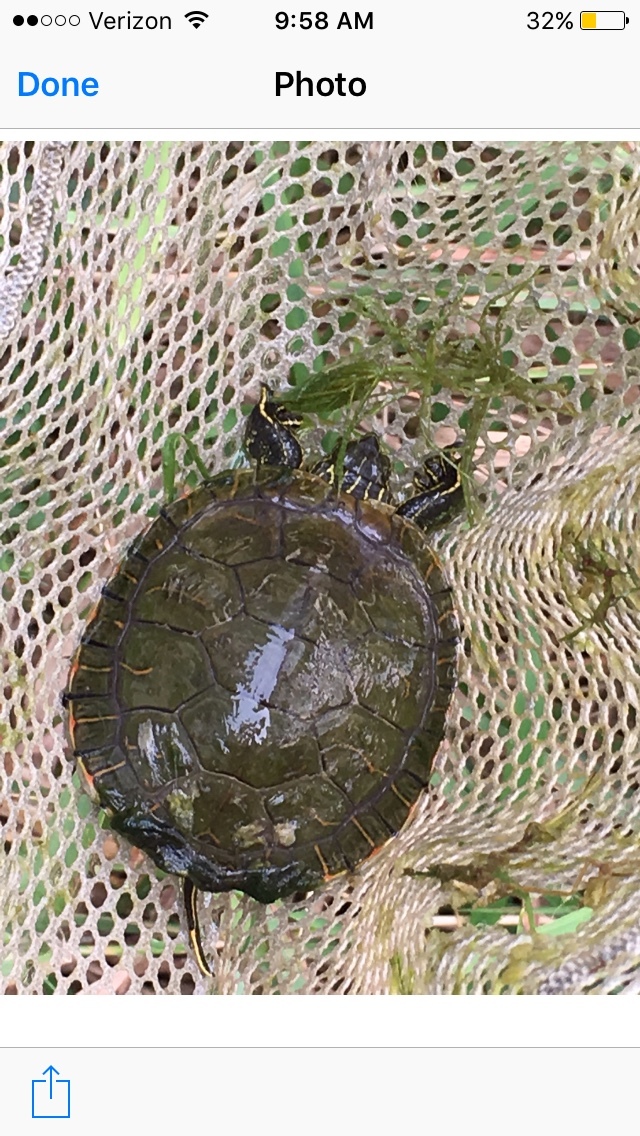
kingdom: Animalia
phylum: Chordata
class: Testudines
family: Emydidae
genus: Chrysemys
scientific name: Chrysemys picta
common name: Painted turtle
